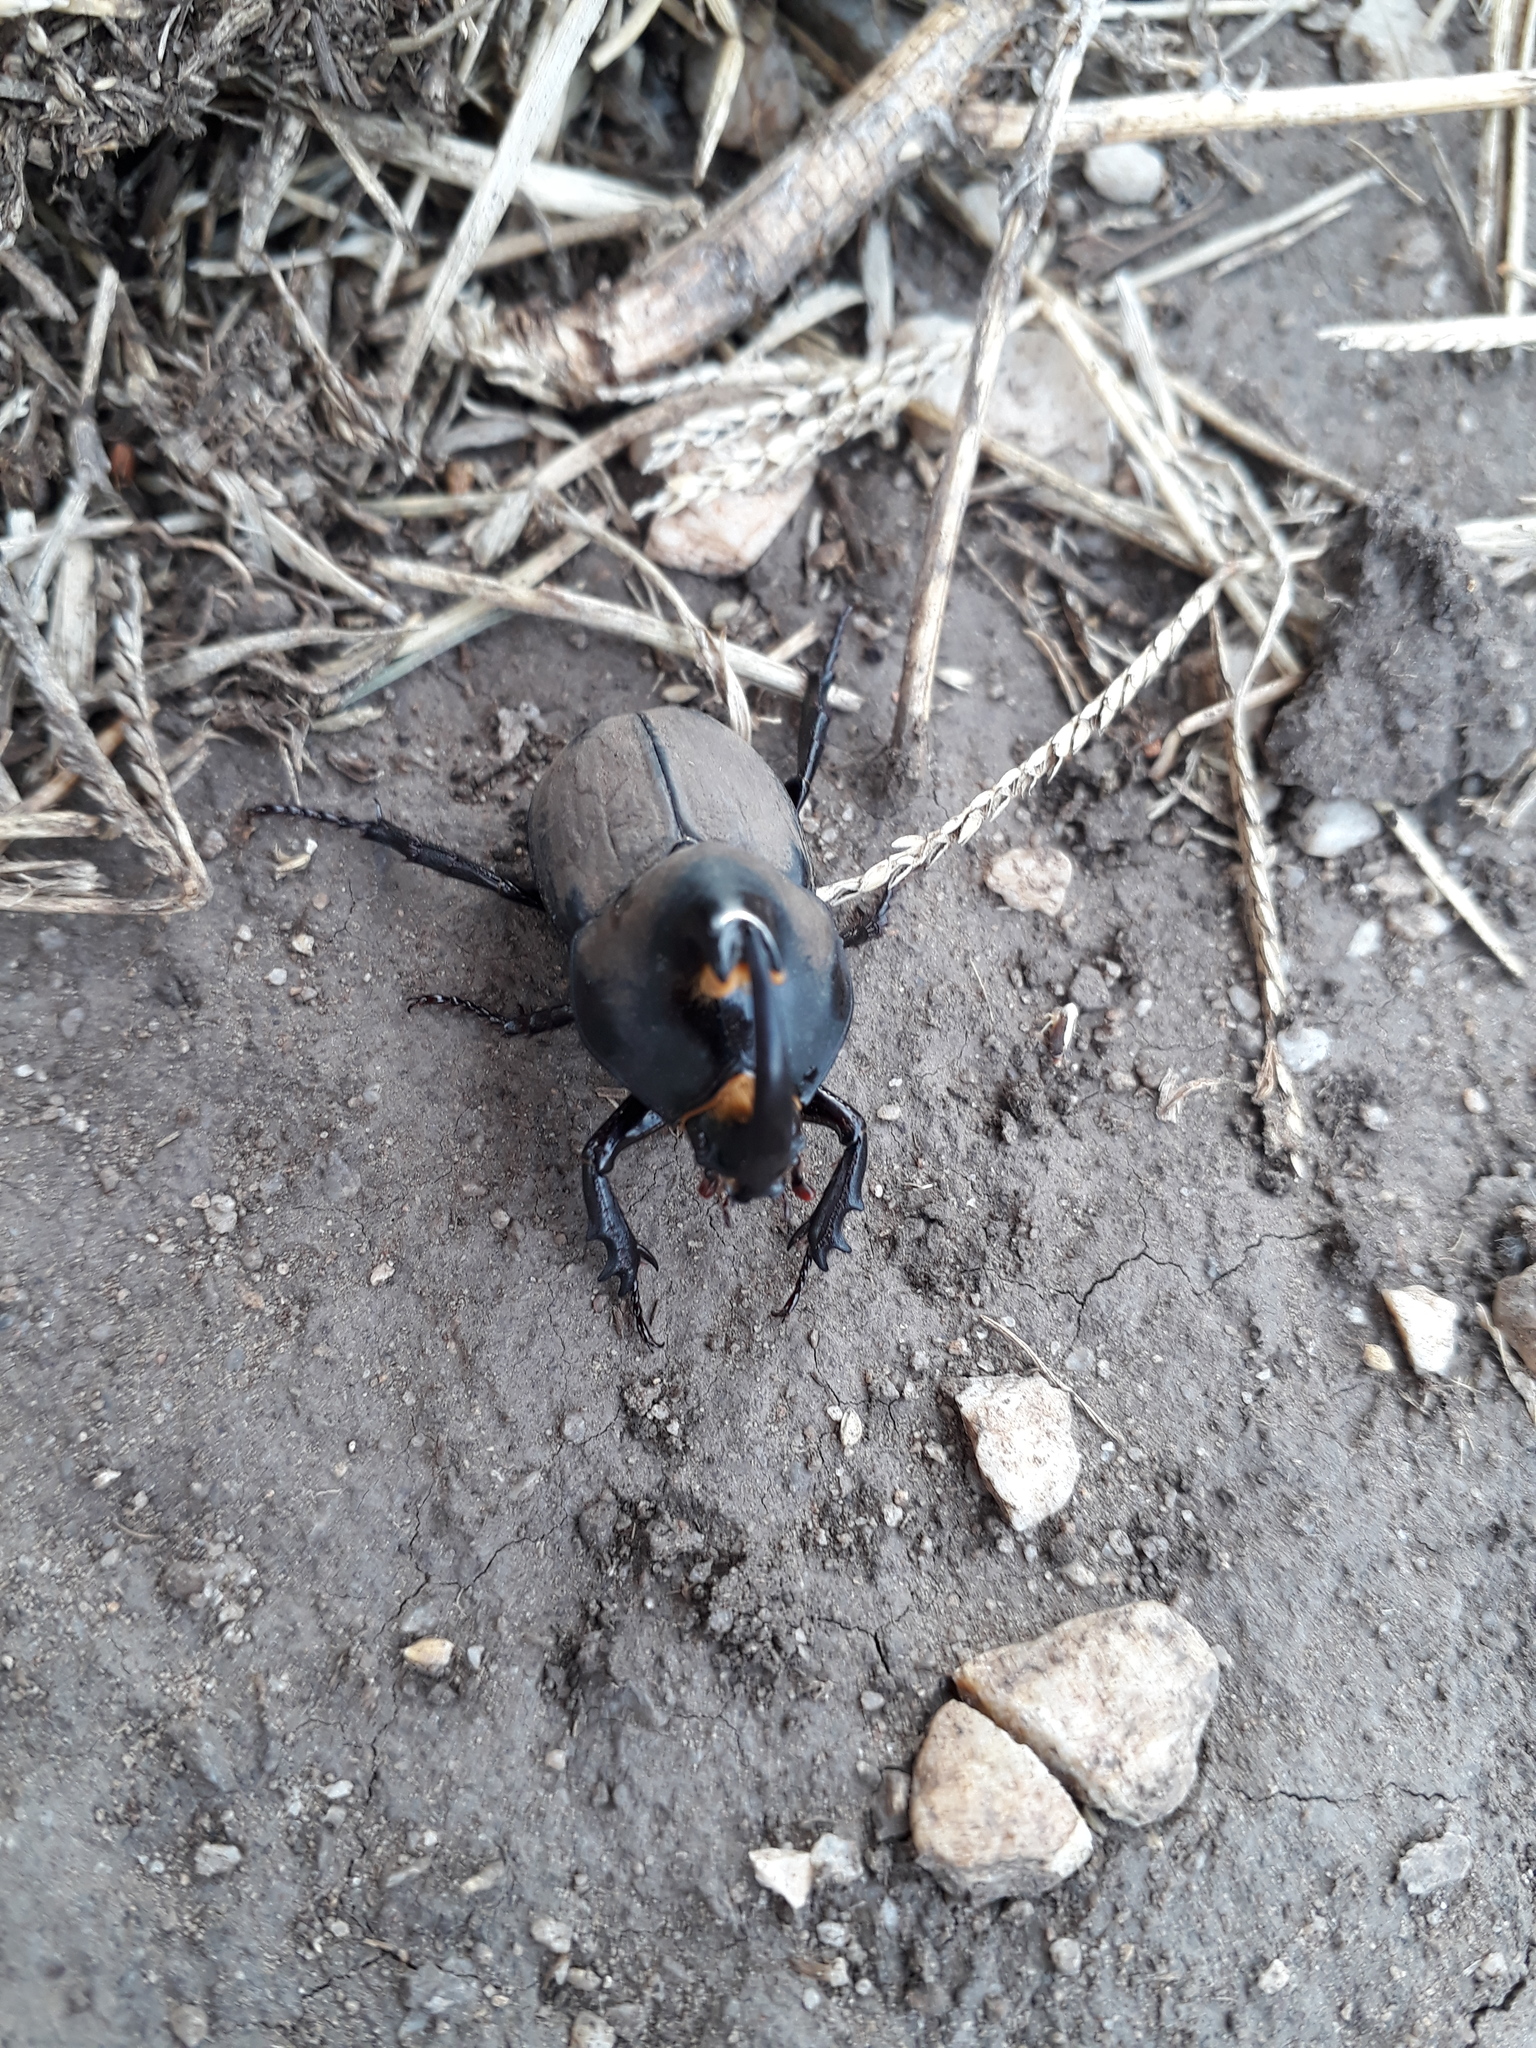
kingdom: Animalia
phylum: Arthropoda
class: Insecta
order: Coleoptera
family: Scarabaeidae
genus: Diloboderus
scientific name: Diloboderus abderus
